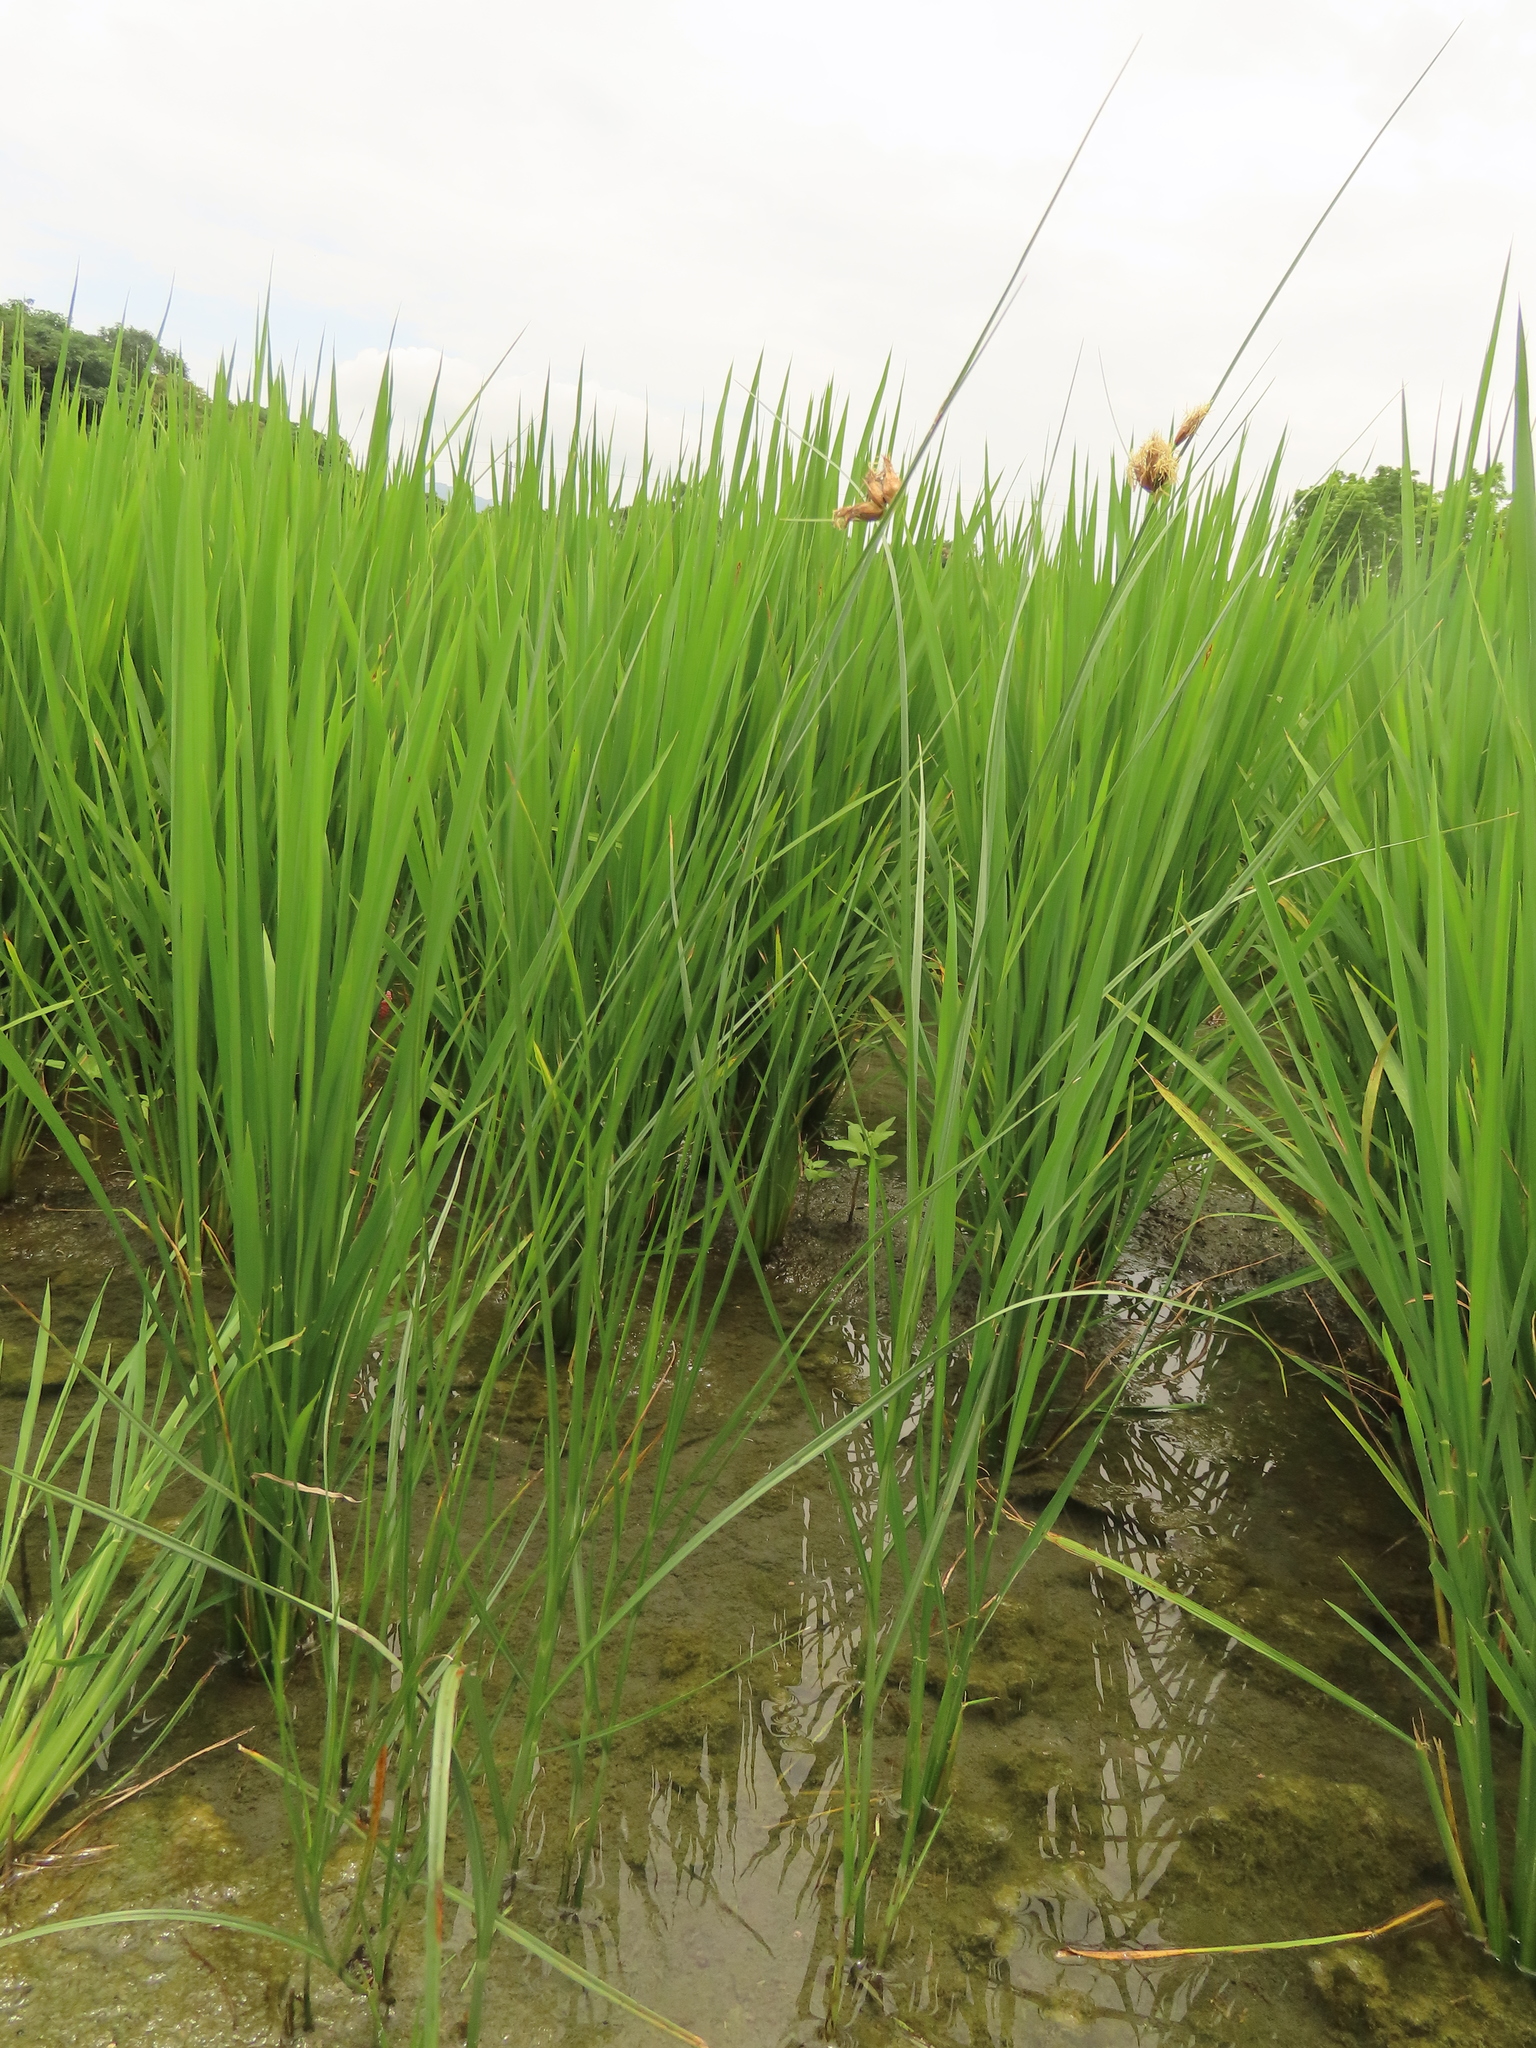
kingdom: Plantae
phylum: Tracheophyta
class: Liliopsida
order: Poales
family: Cyperaceae
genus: Bolboschoenus
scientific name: Bolboschoenus maritimus
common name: Sea club-rush
